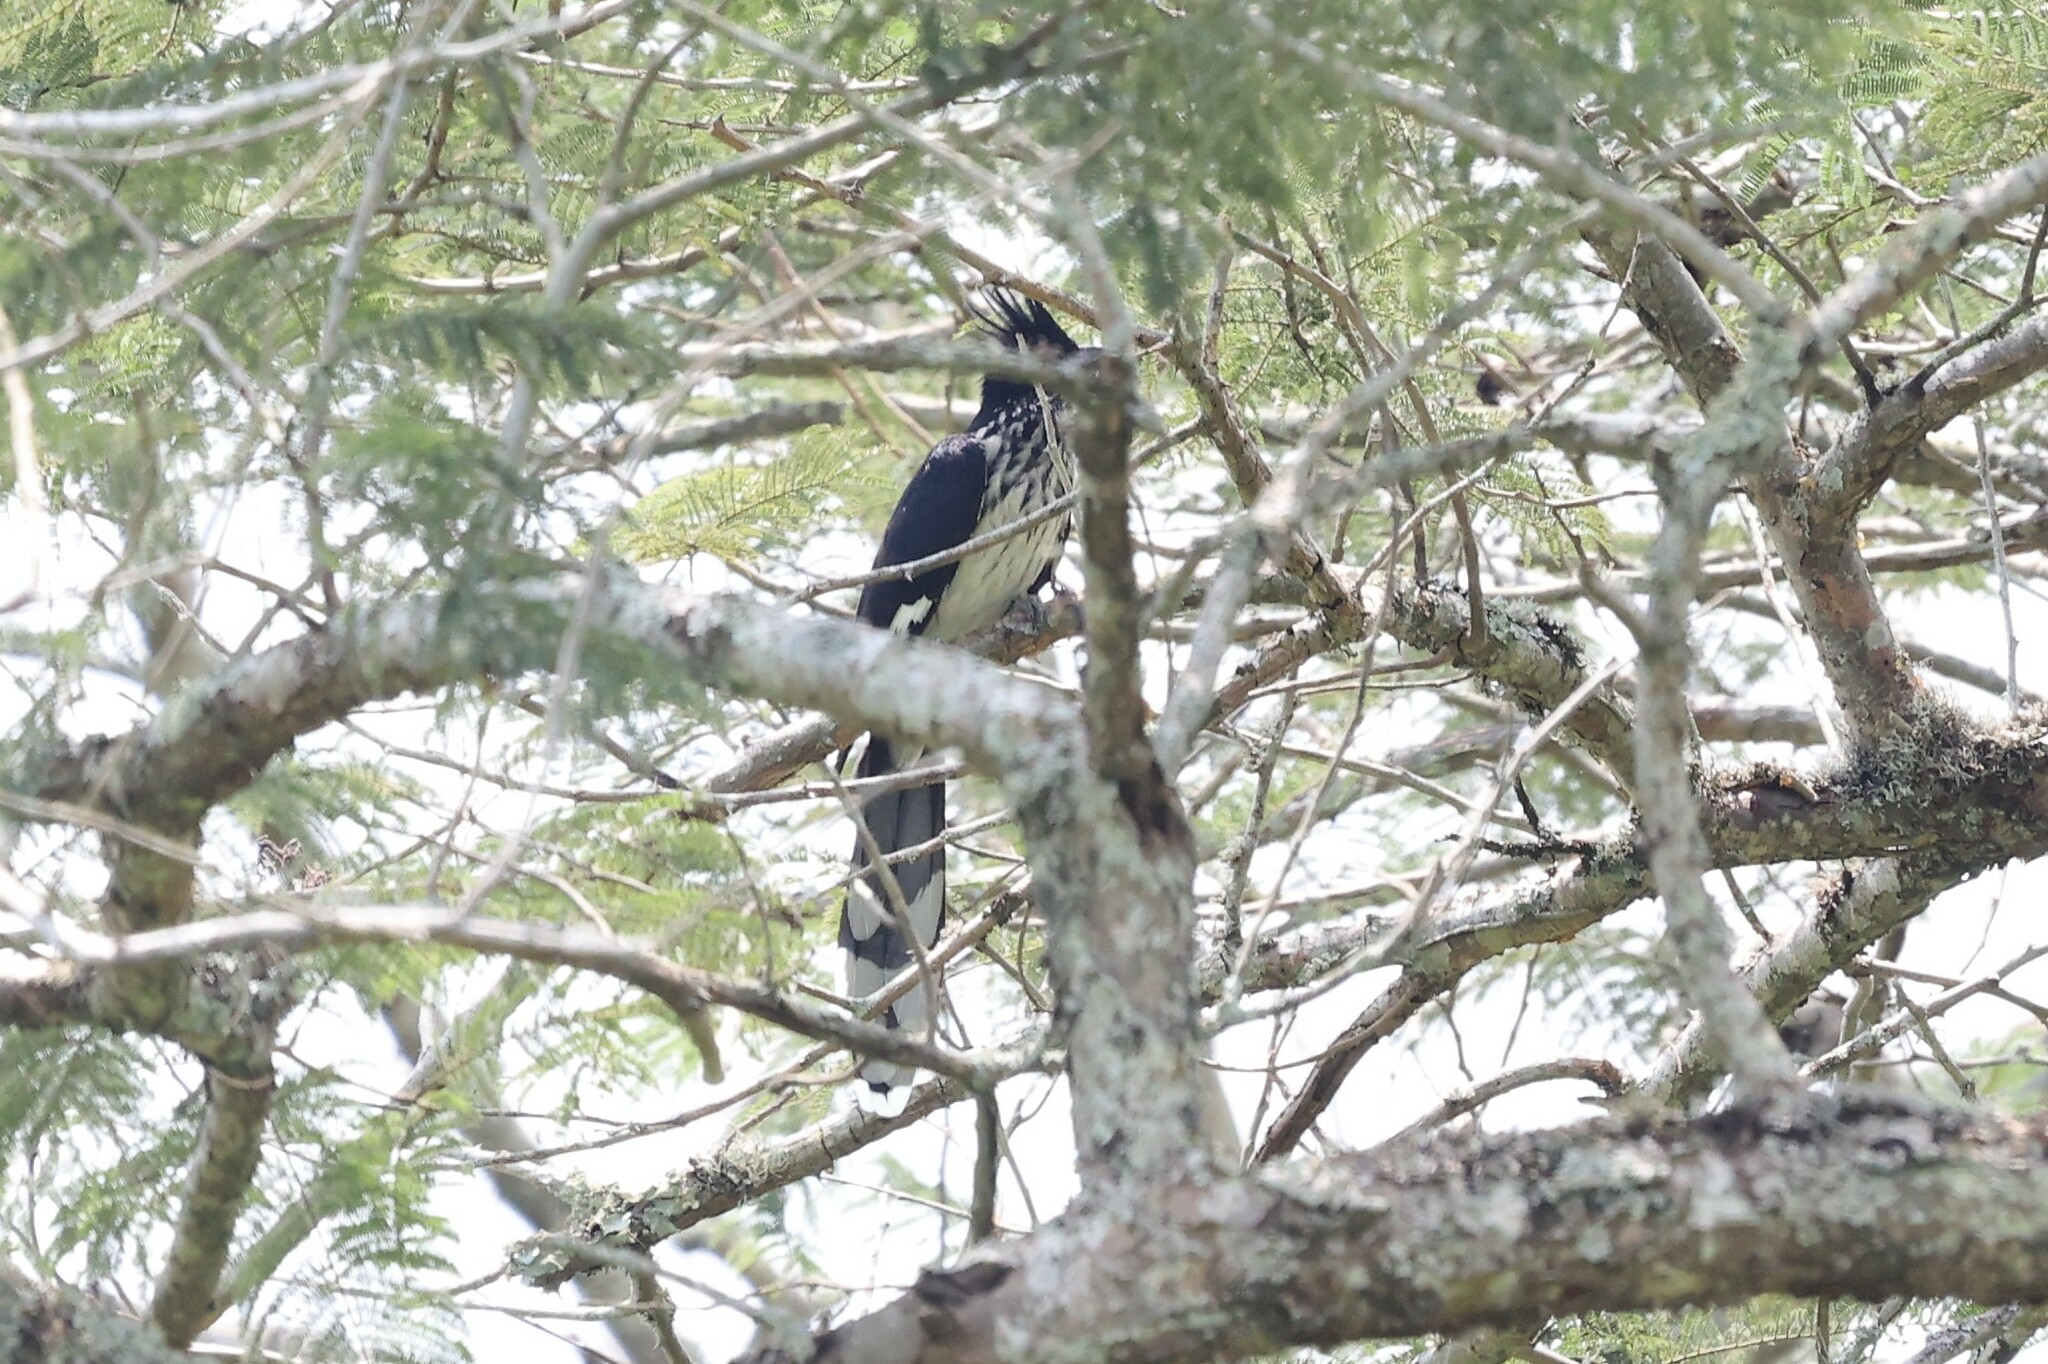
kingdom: Animalia
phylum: Chordata
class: Aves
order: Cuculiformes
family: Cuculidae
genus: Clamator
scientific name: Clamator levaillantii
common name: Levaillant's cuckoo
